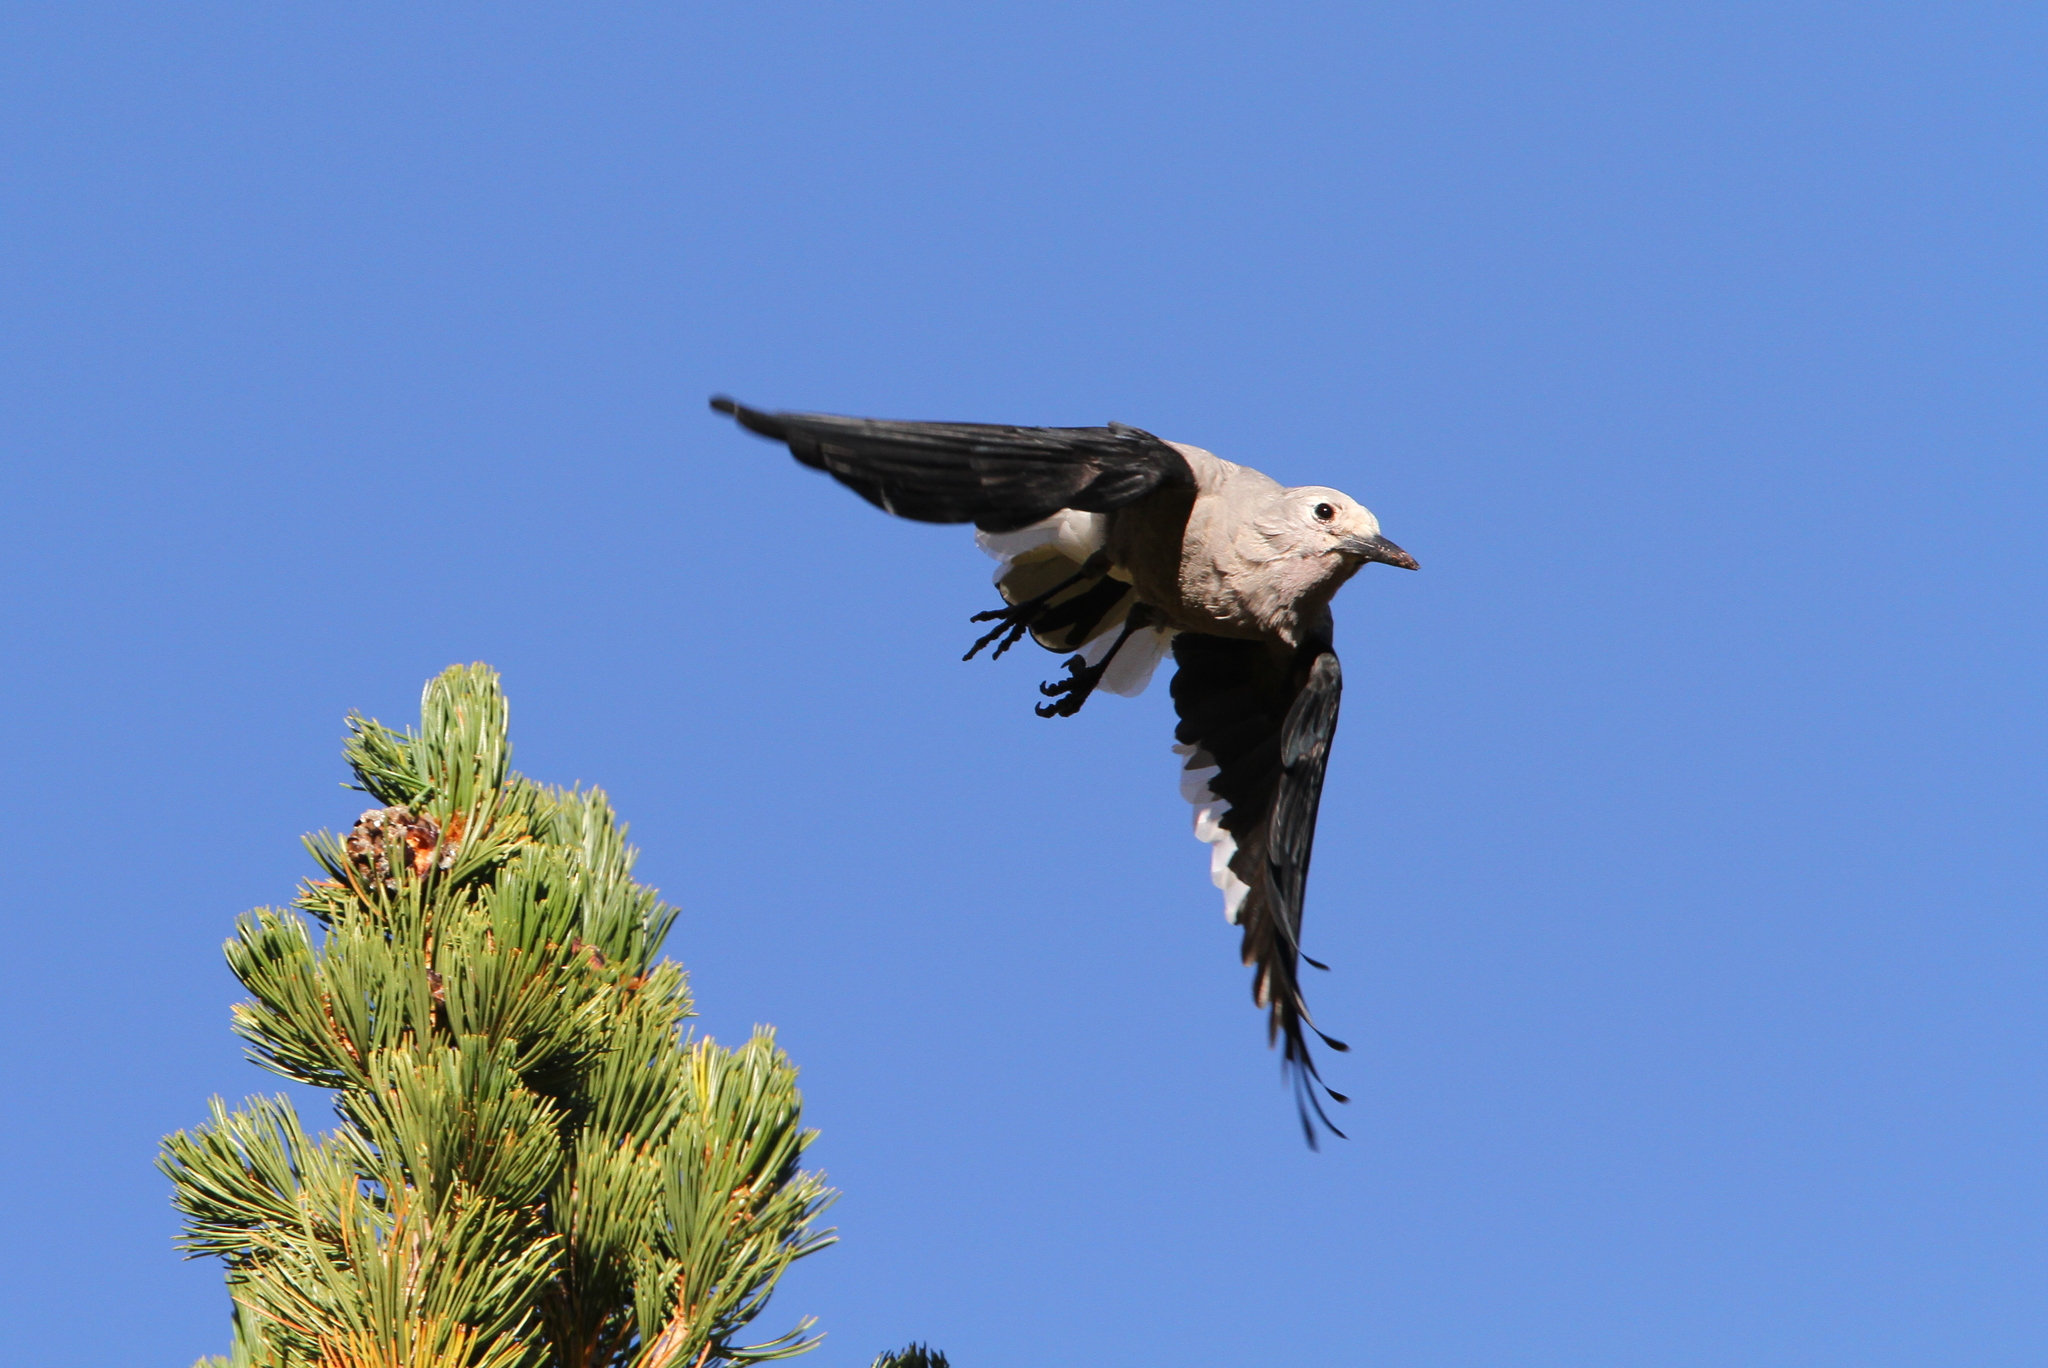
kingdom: Animalia
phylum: Chordata
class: Aves
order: Passeriformes
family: Corvidae
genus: Nucifraga
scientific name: Nucifraga columbiana
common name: Clark's nutcracker
